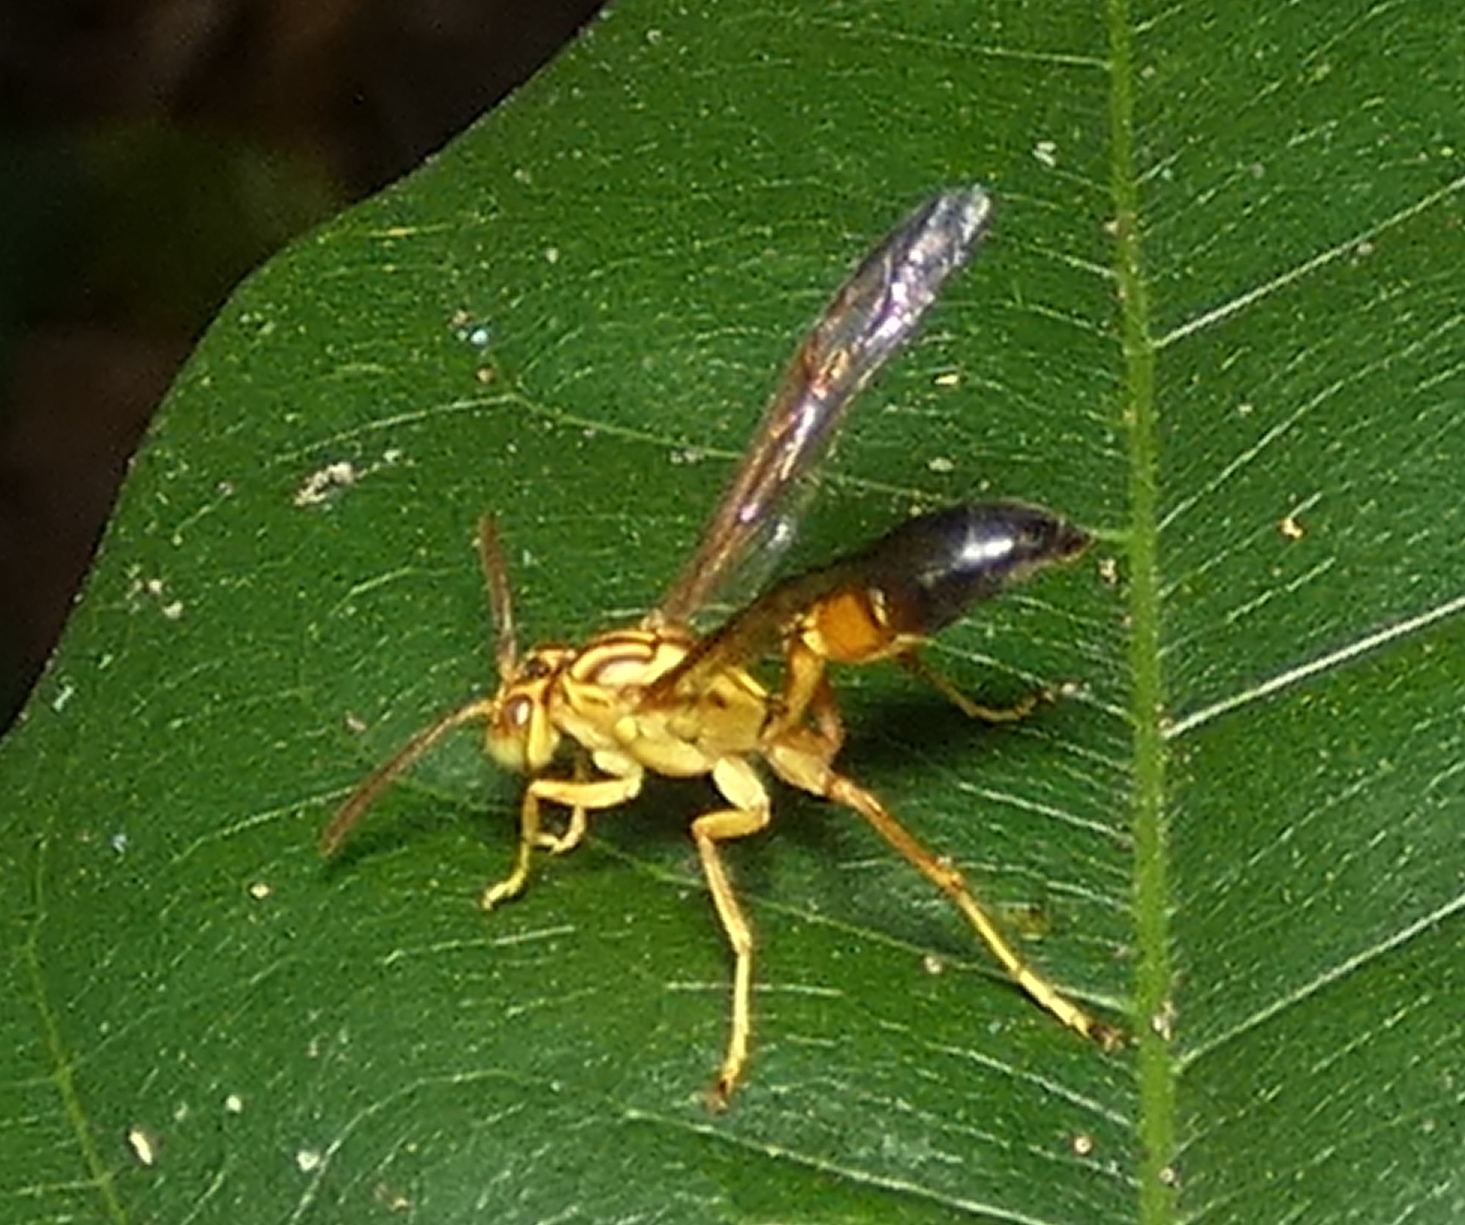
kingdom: Animalia
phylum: Arthropoda
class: Insecta
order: Hymenoptera
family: Vespidae
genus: Agelaia
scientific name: Agelaia pallipes
